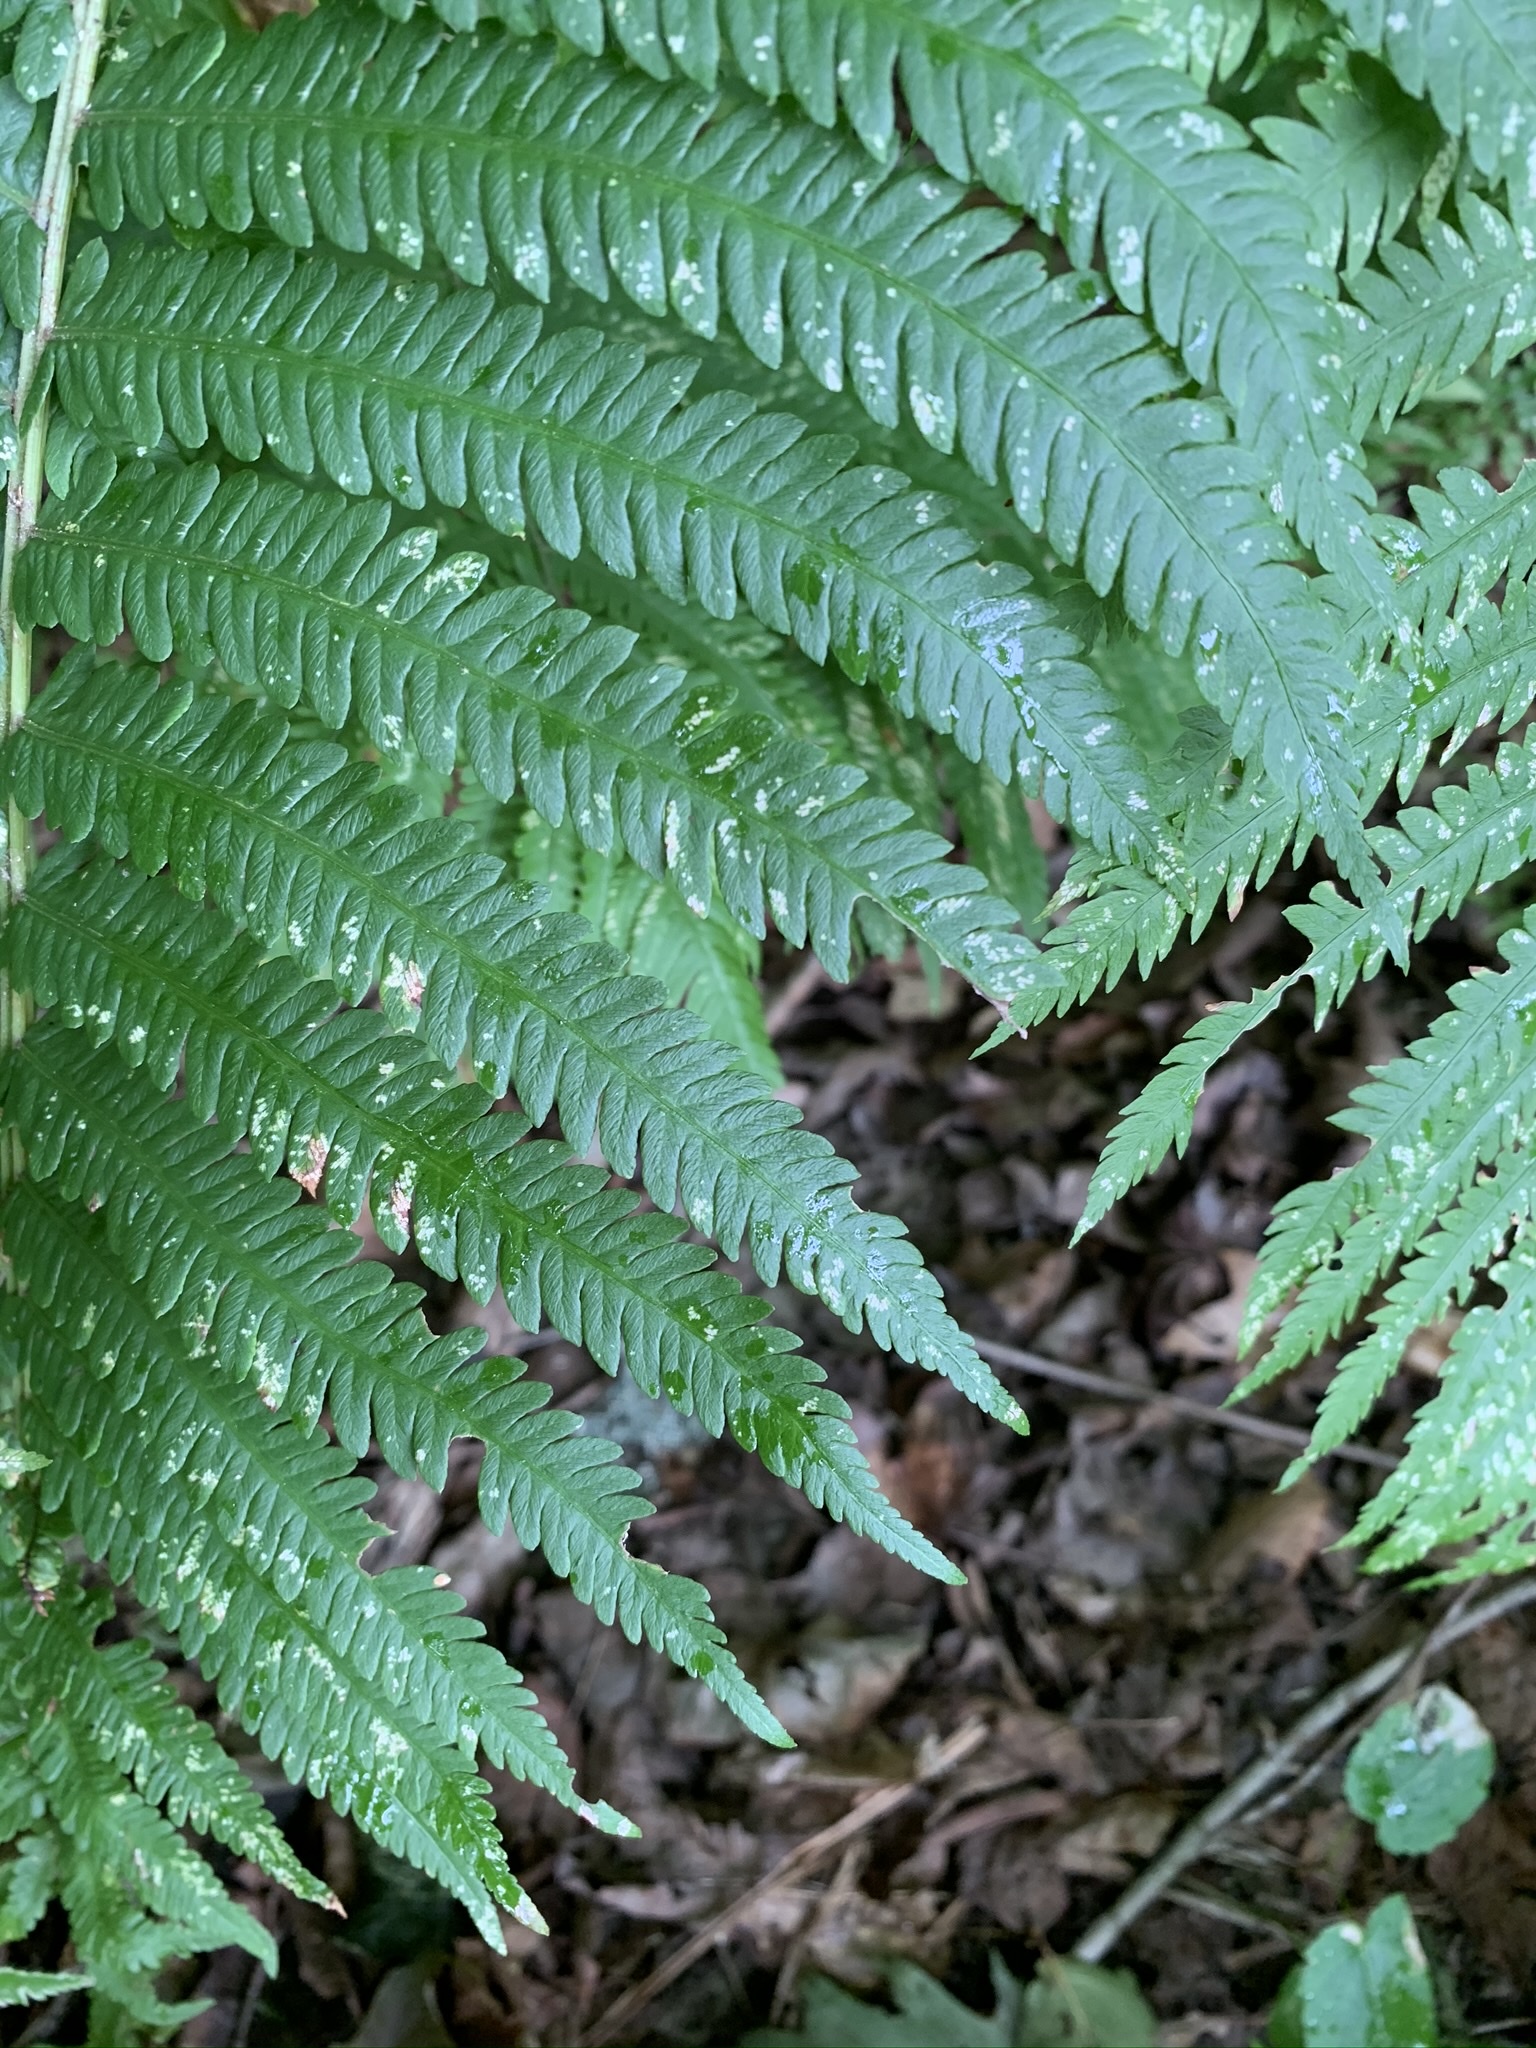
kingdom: Plantae
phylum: Tracheophyta
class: Polypodiopsida
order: Polypodiales
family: Onocleaceae
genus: Matteuccia
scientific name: Matteuccia struthiopteris
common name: Ostrich fern
